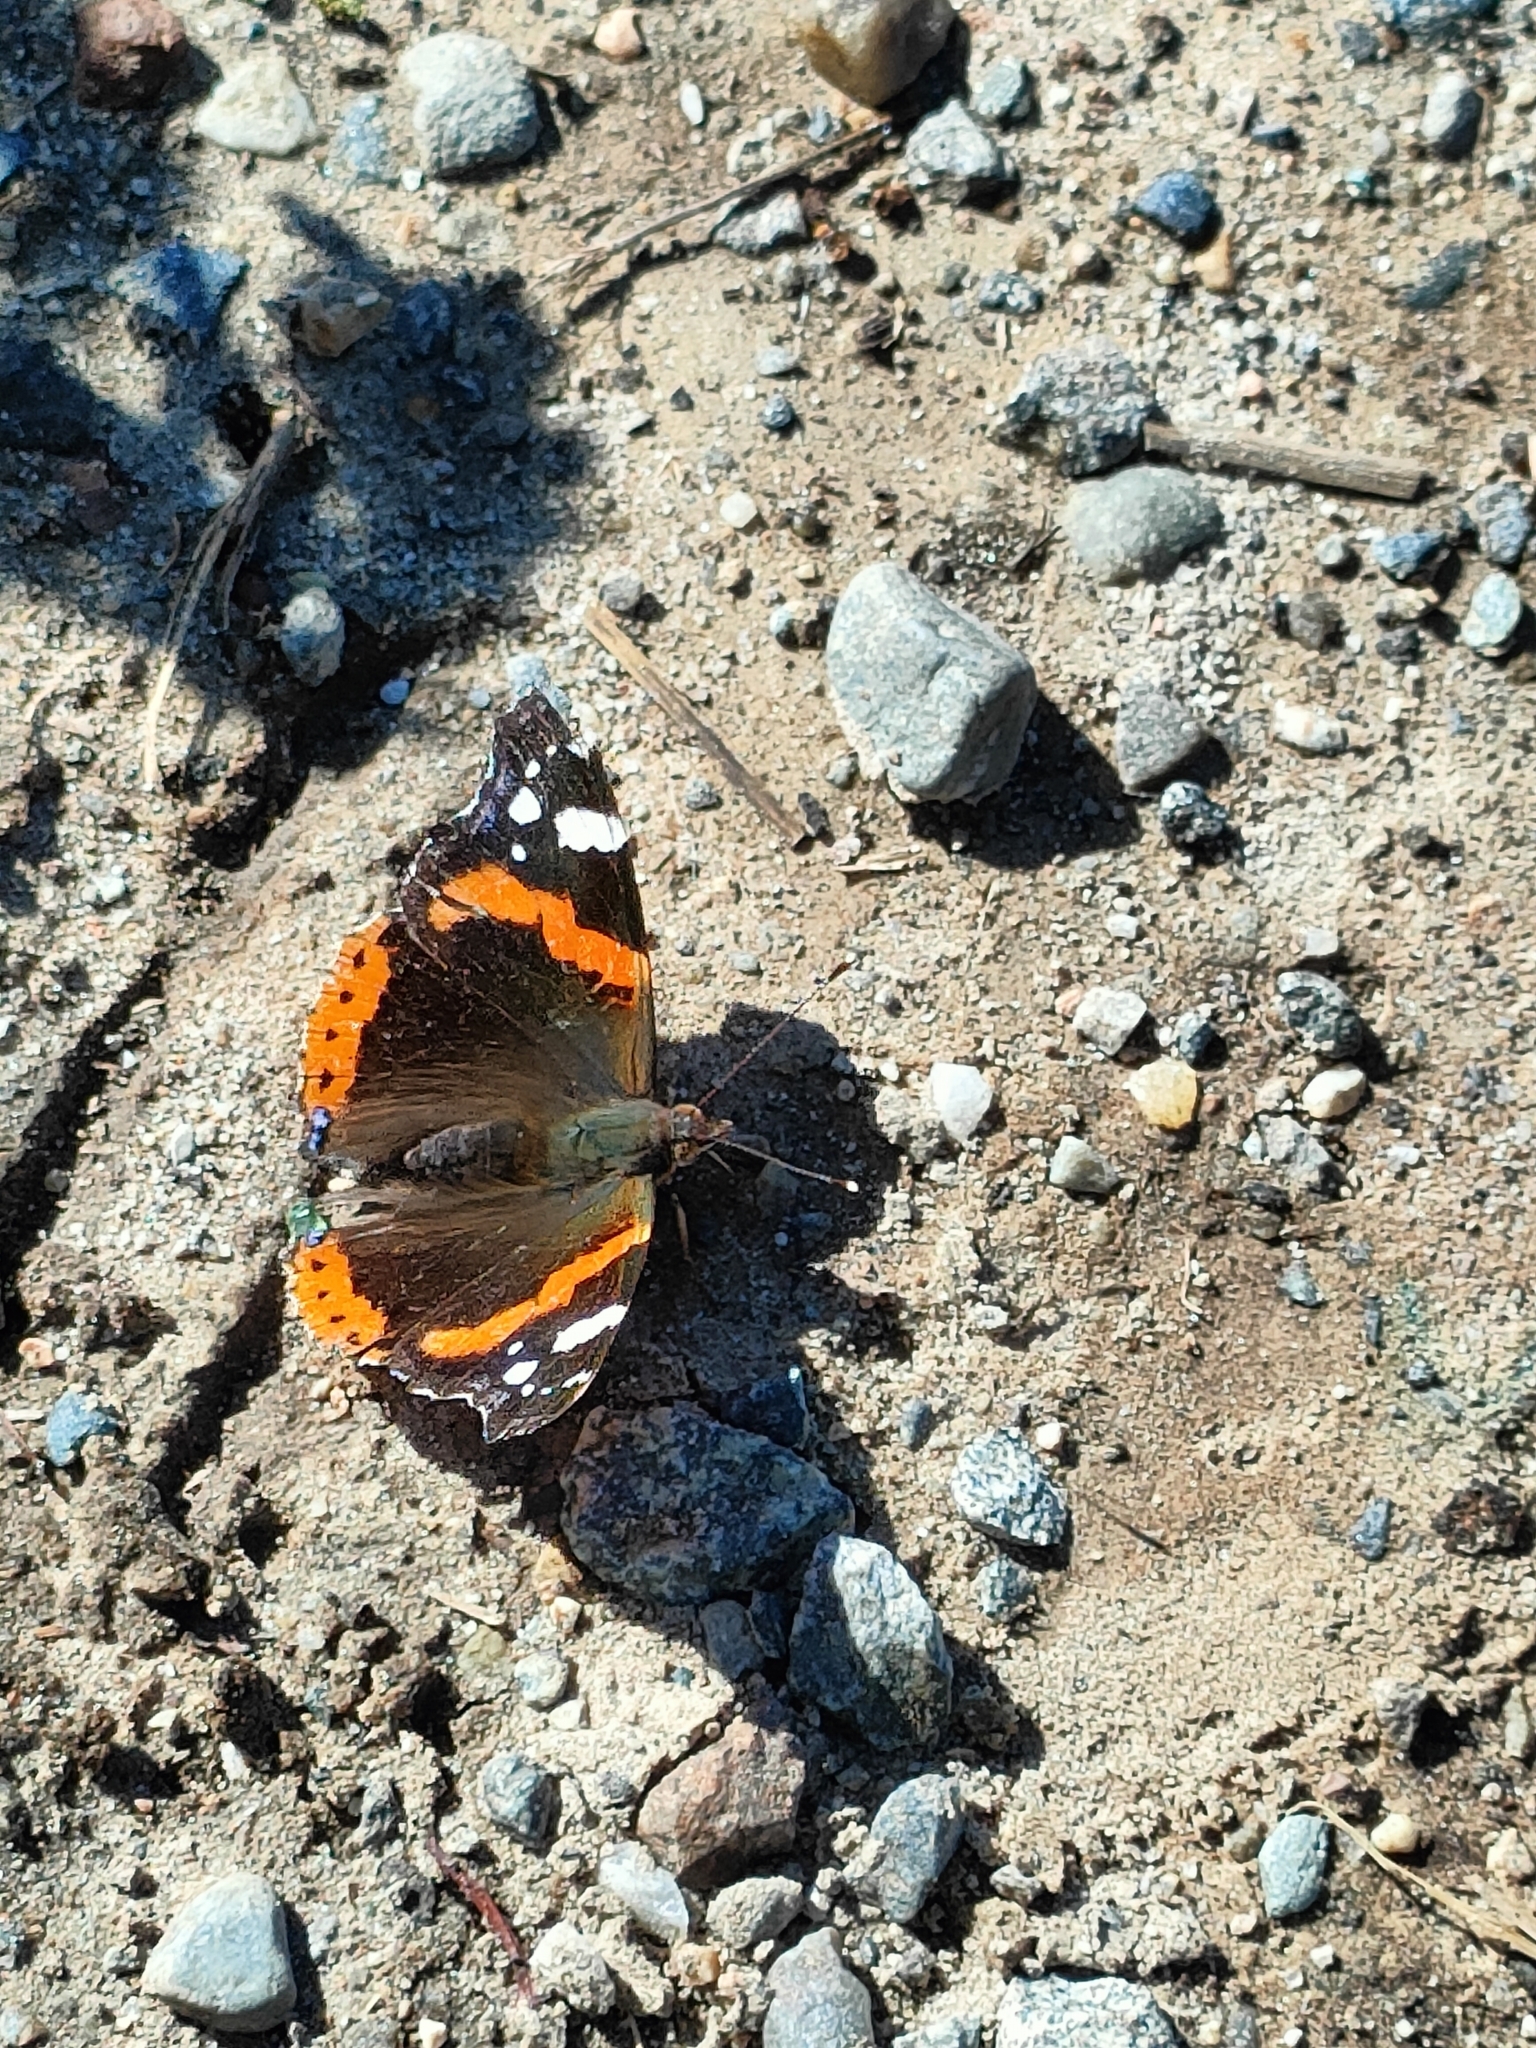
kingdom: Animalia
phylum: Arthropoda
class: Insecta
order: Lepidoptera
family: Nymphalidae
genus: Vanessa
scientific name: Vanessa atalanta
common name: Red admiral
